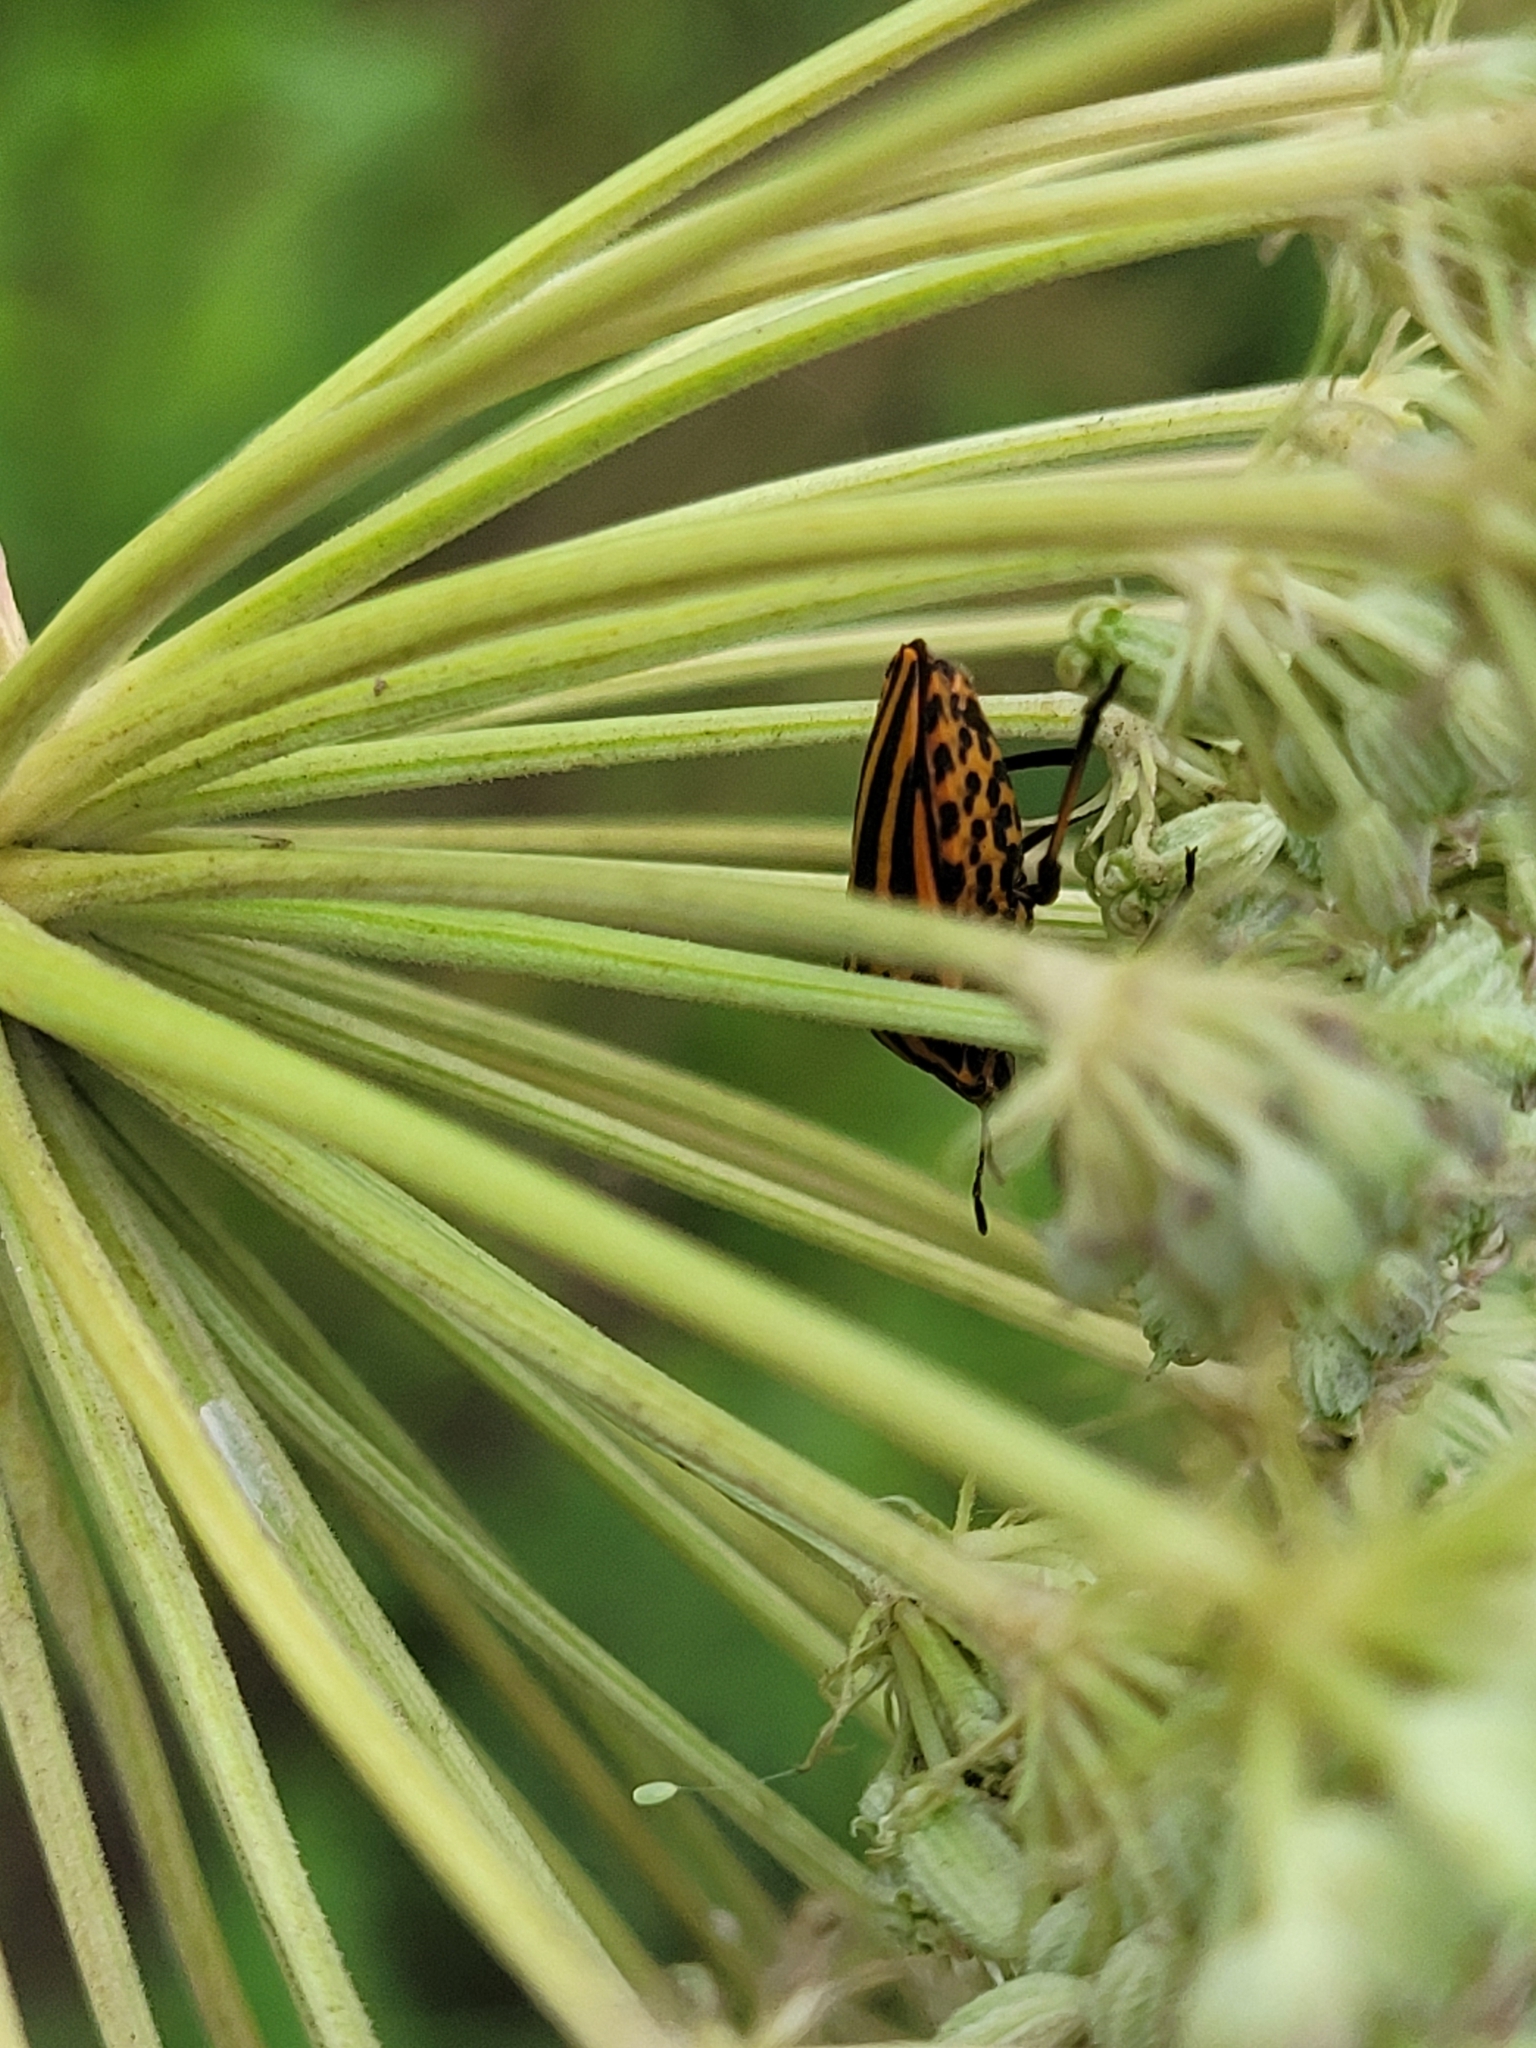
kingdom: Animalia
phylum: Arthropoda
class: Insecta
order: Hemiptera
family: Pentatomidae
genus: Graphosoma
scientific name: Graphosoma italicum
